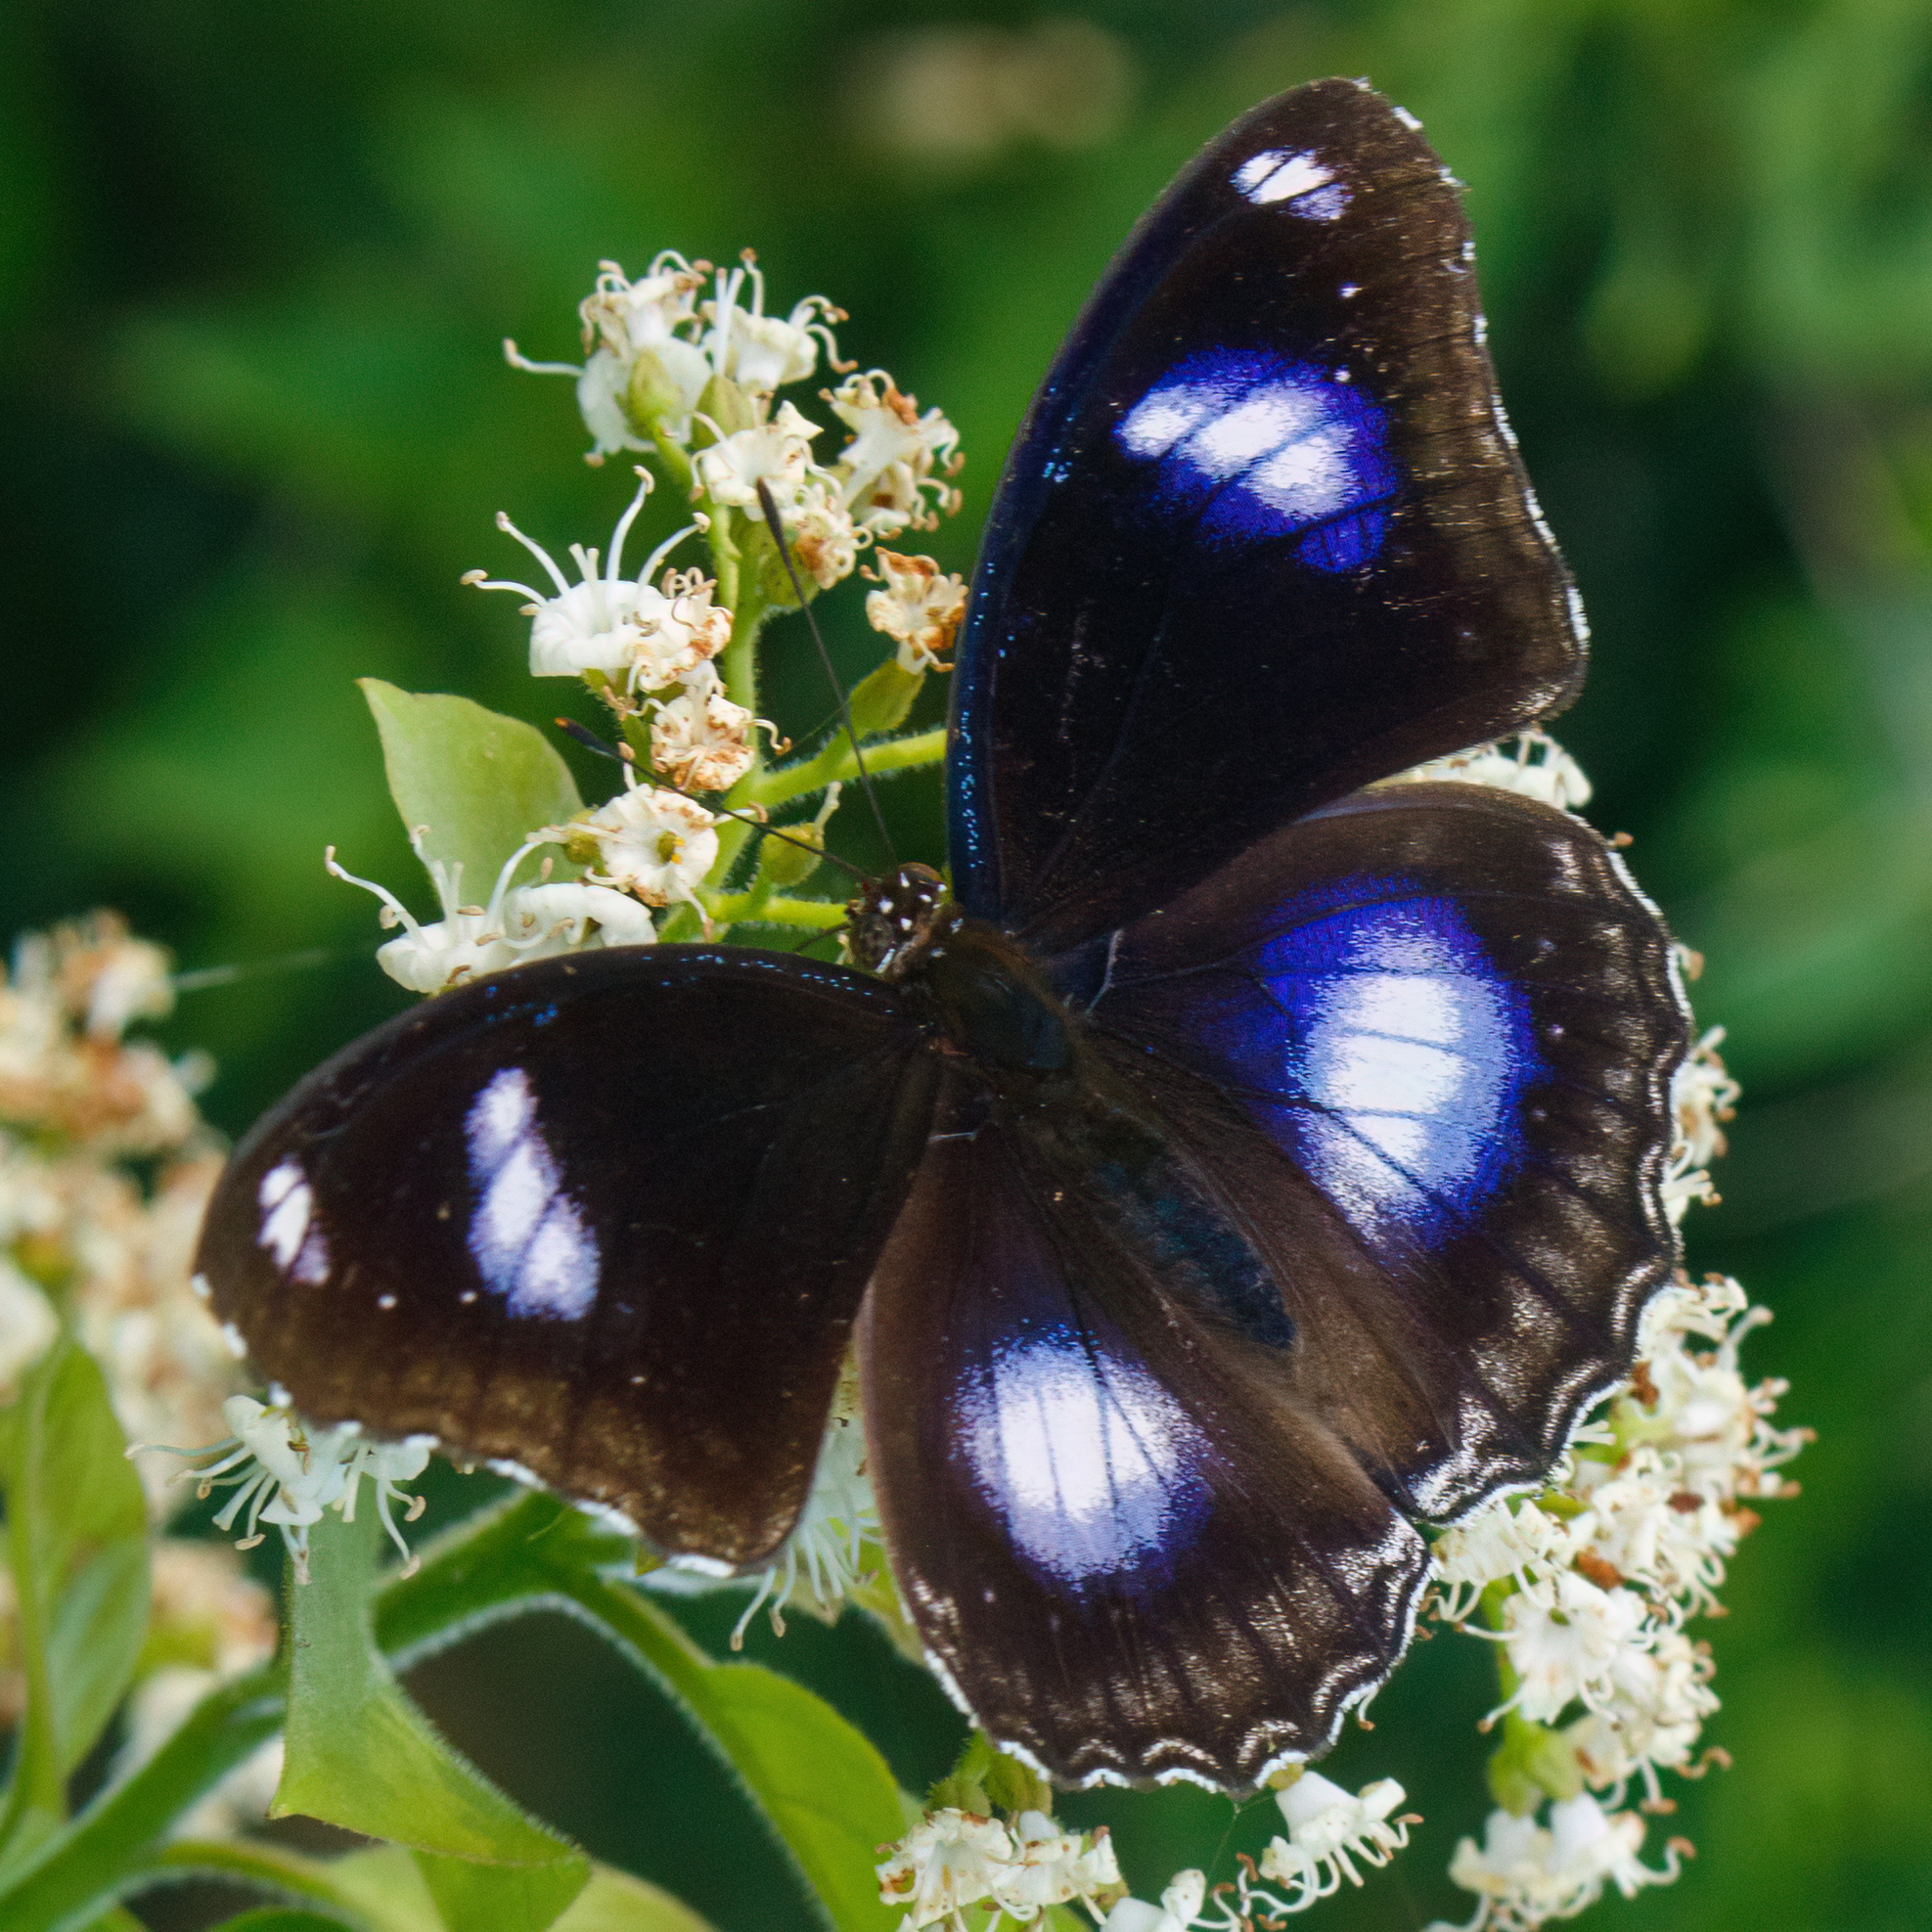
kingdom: Animalia
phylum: Arthropoda
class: Insecta
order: Lepidoptera
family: Nymphalidae
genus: Hypolimnas
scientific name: Hypolimnas bolina
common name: Great eggfly
